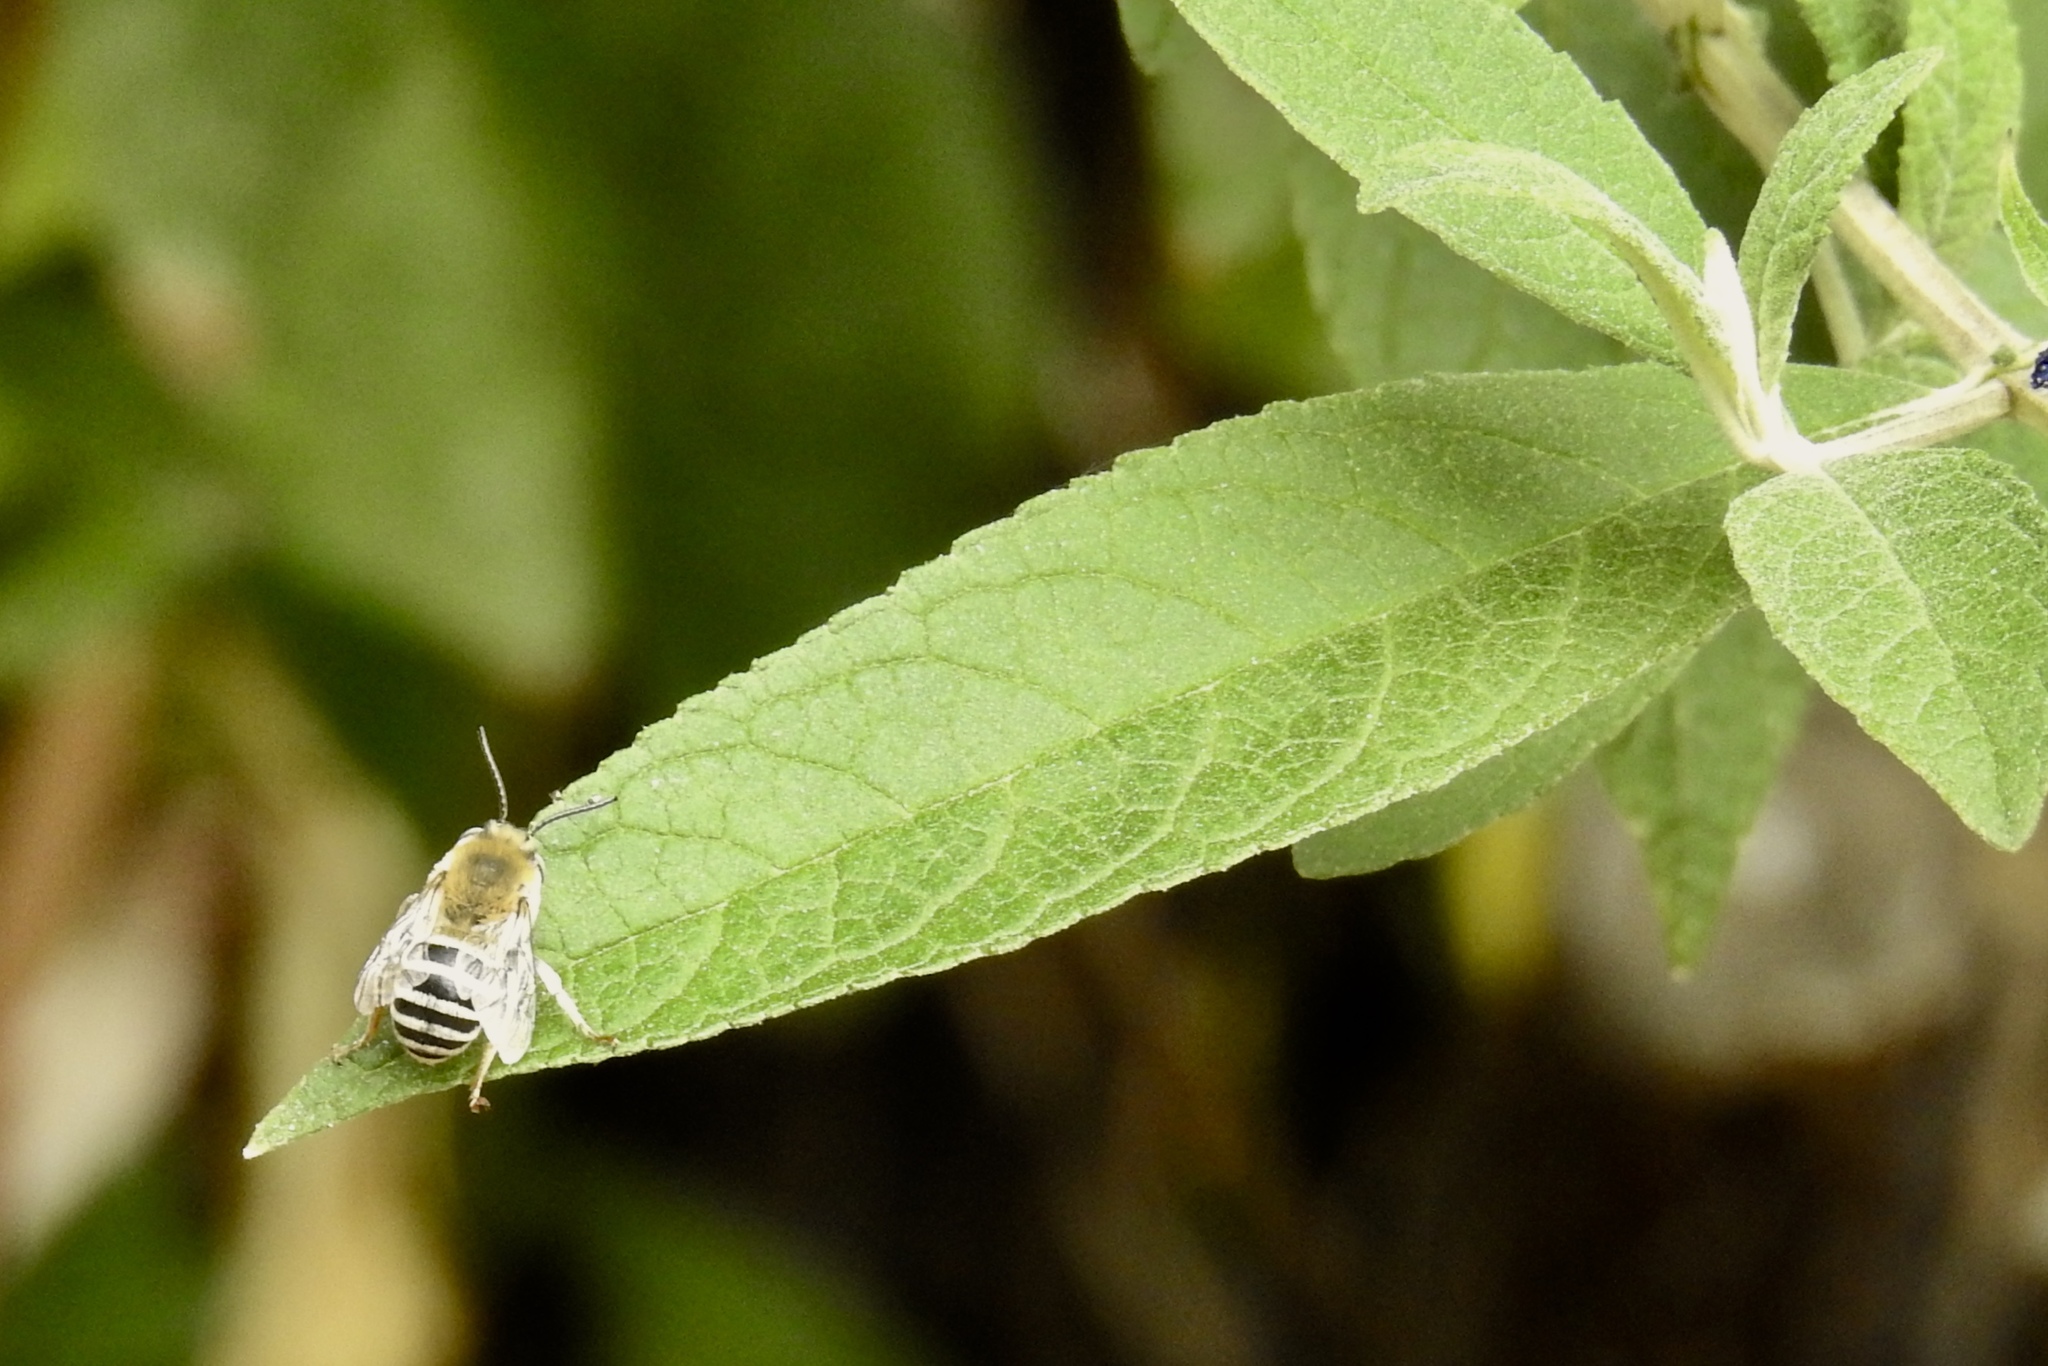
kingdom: Animalia
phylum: Arthropoda
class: Insecta
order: Hymenoptera
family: Apidae
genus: Anthophora
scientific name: Anthophora urbana
